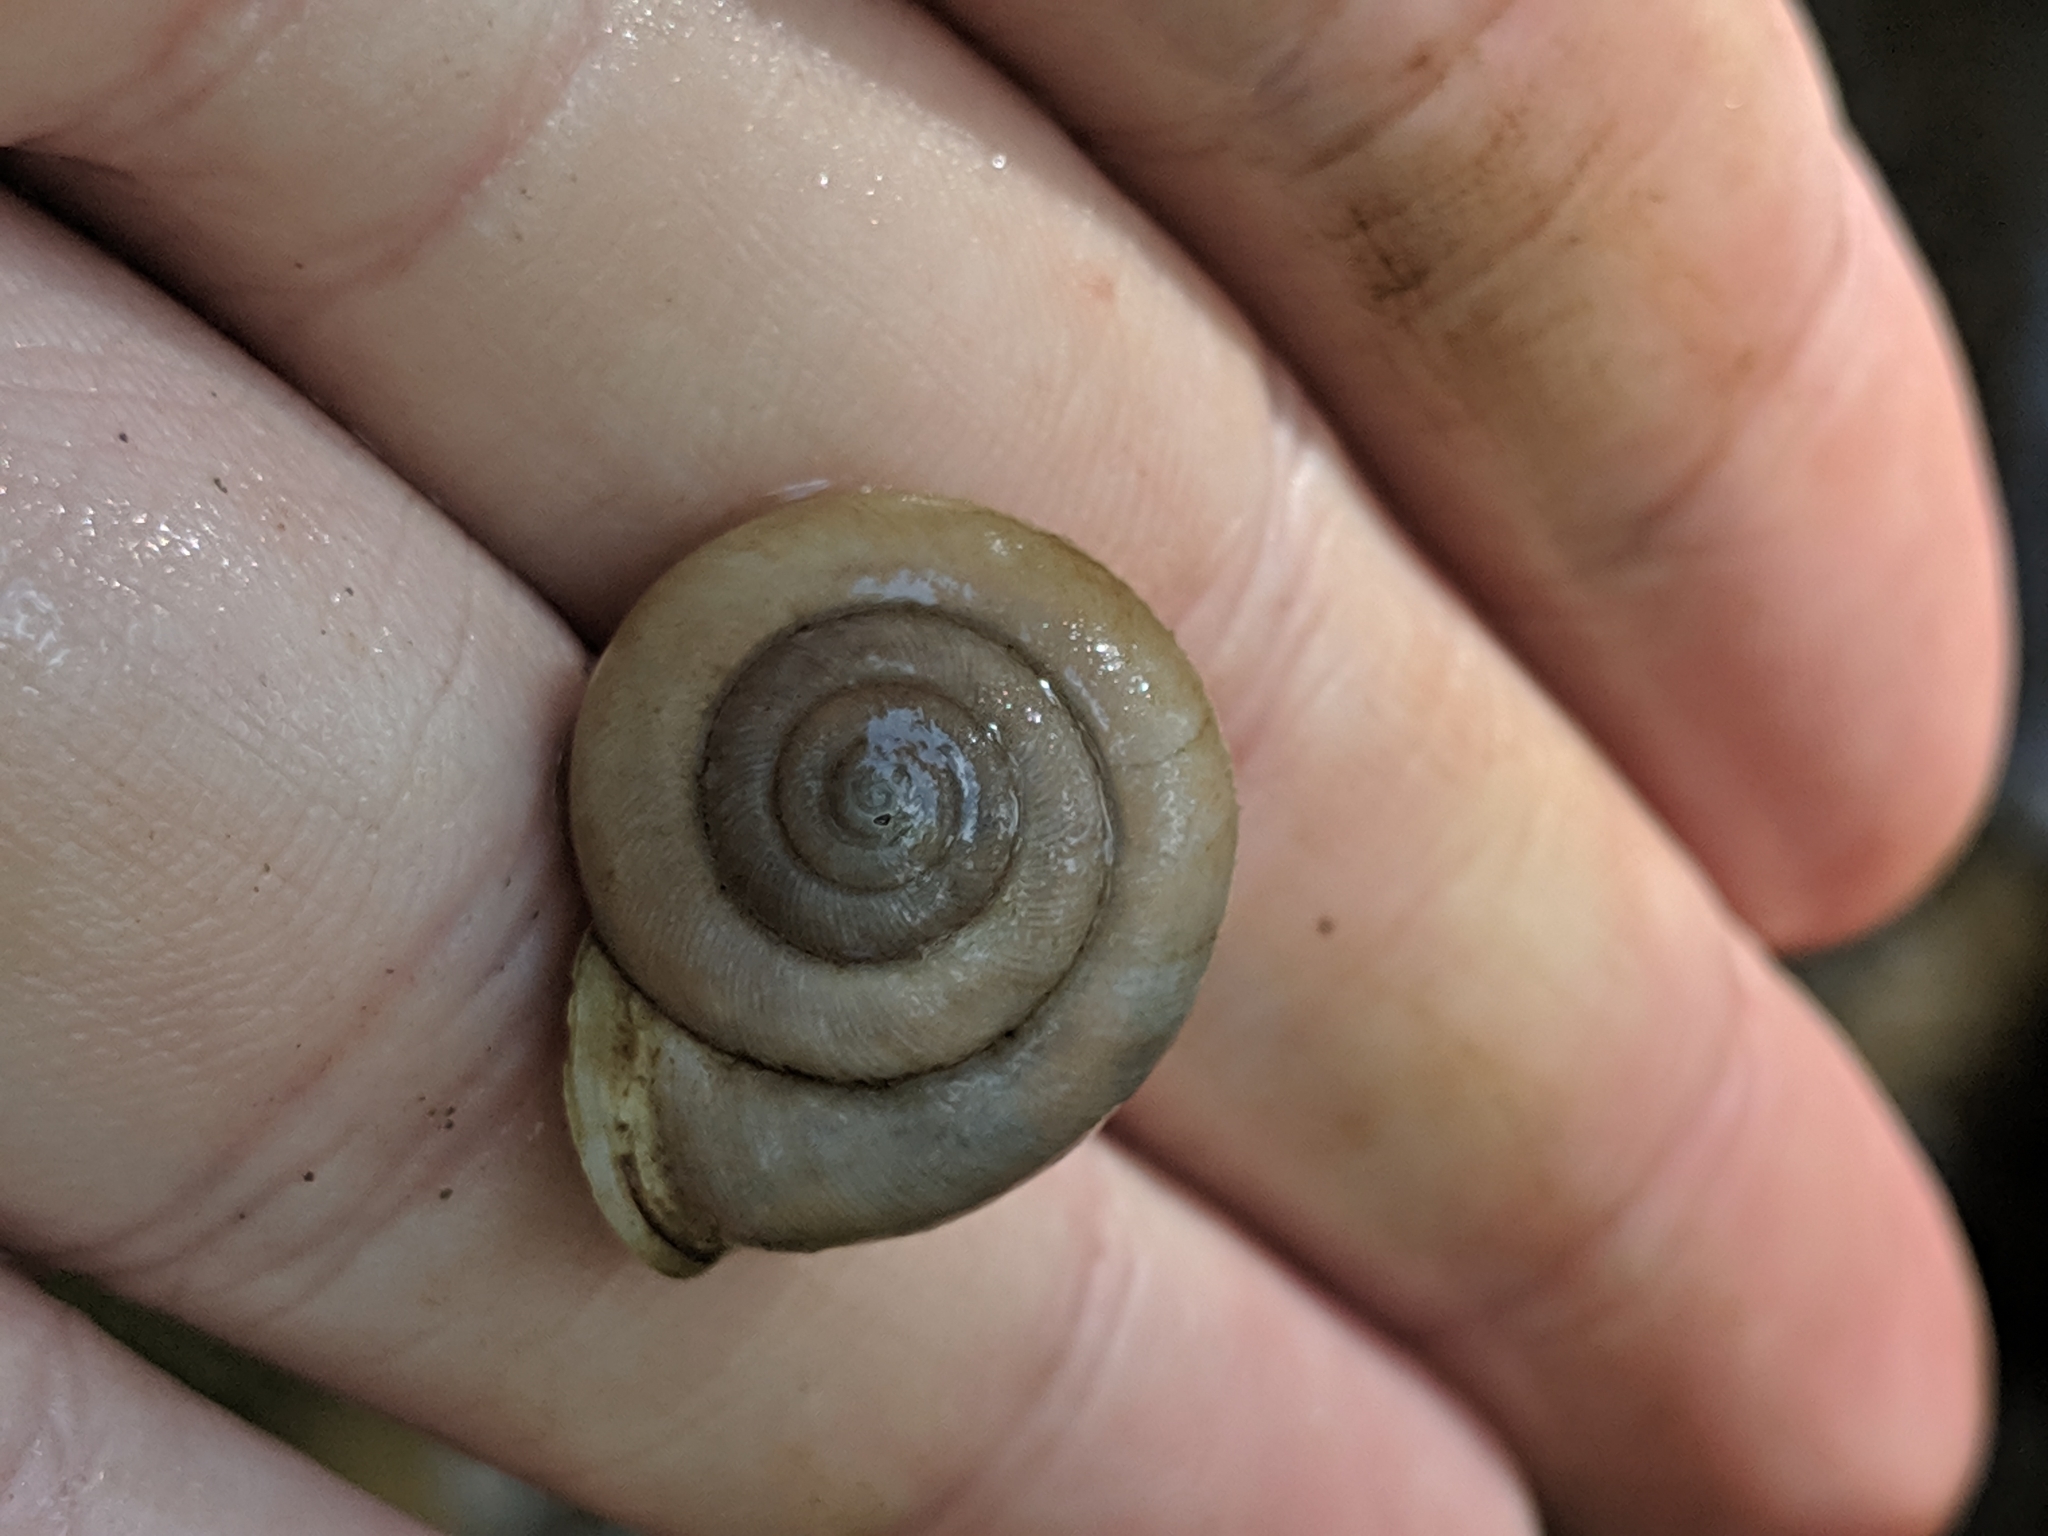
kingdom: Animalia
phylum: Mollusca
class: Gastropoda
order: Stylommatophora
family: Polygyridae
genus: Mesodon
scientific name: Mesodon thyroidus
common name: White-lip globe
